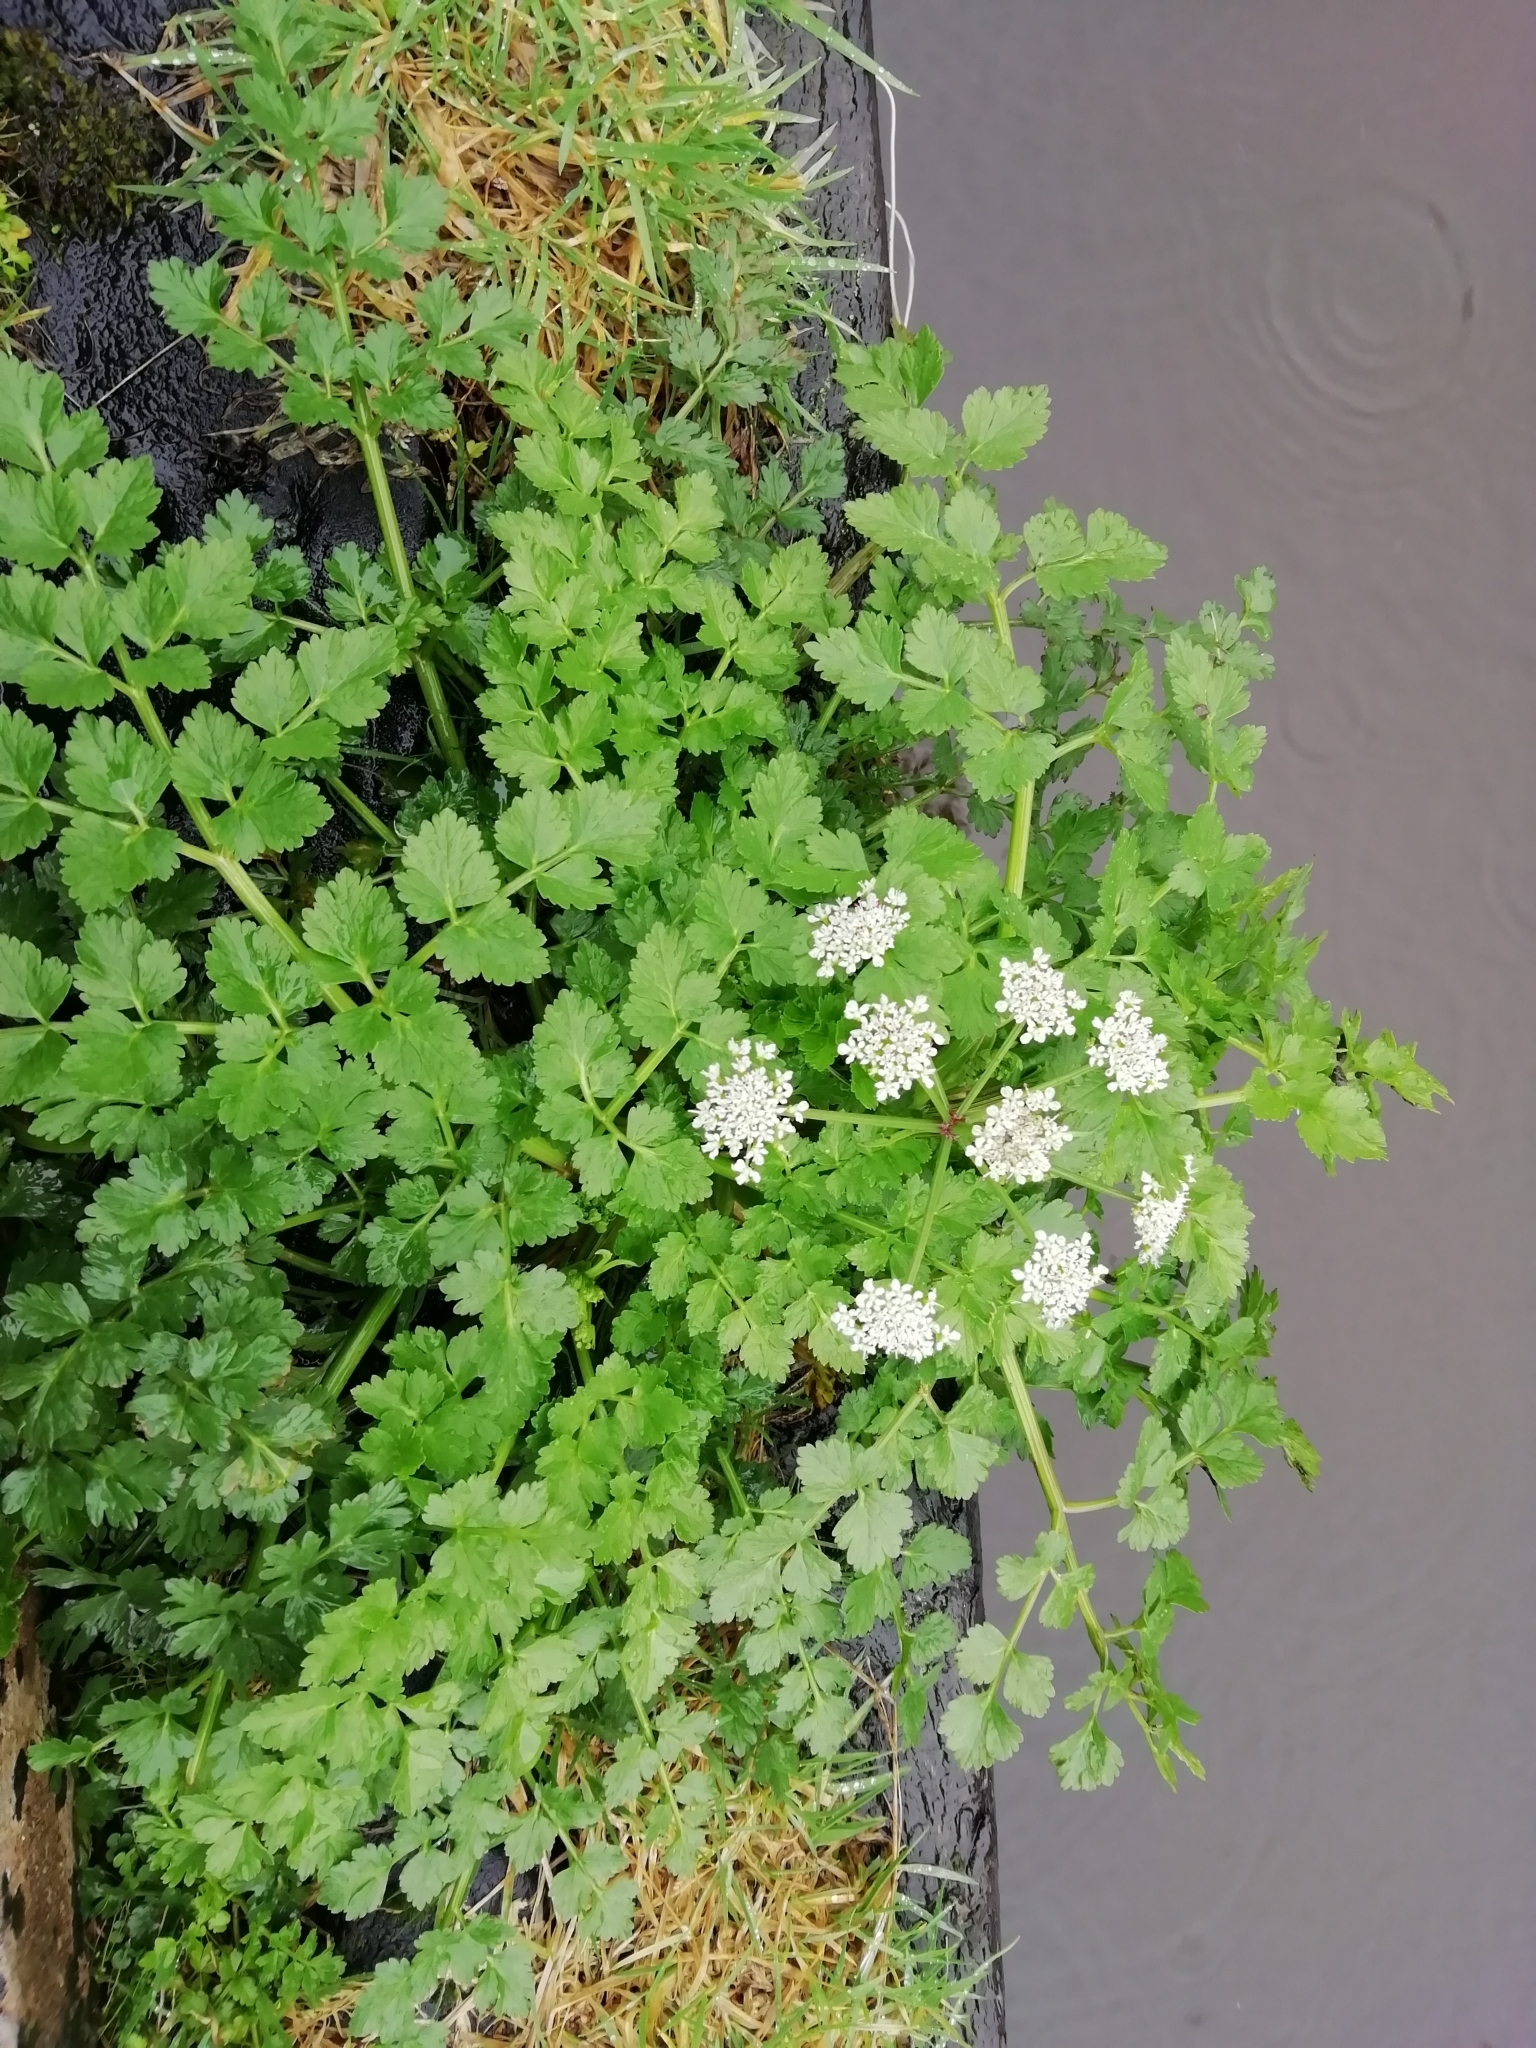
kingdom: Plantae
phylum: Tracheophyta
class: Magnoliopsida
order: Apiales
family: Apiaceae
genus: Oenanthe
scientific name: Oenanthe crocata
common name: Hemlock water-dropwort
